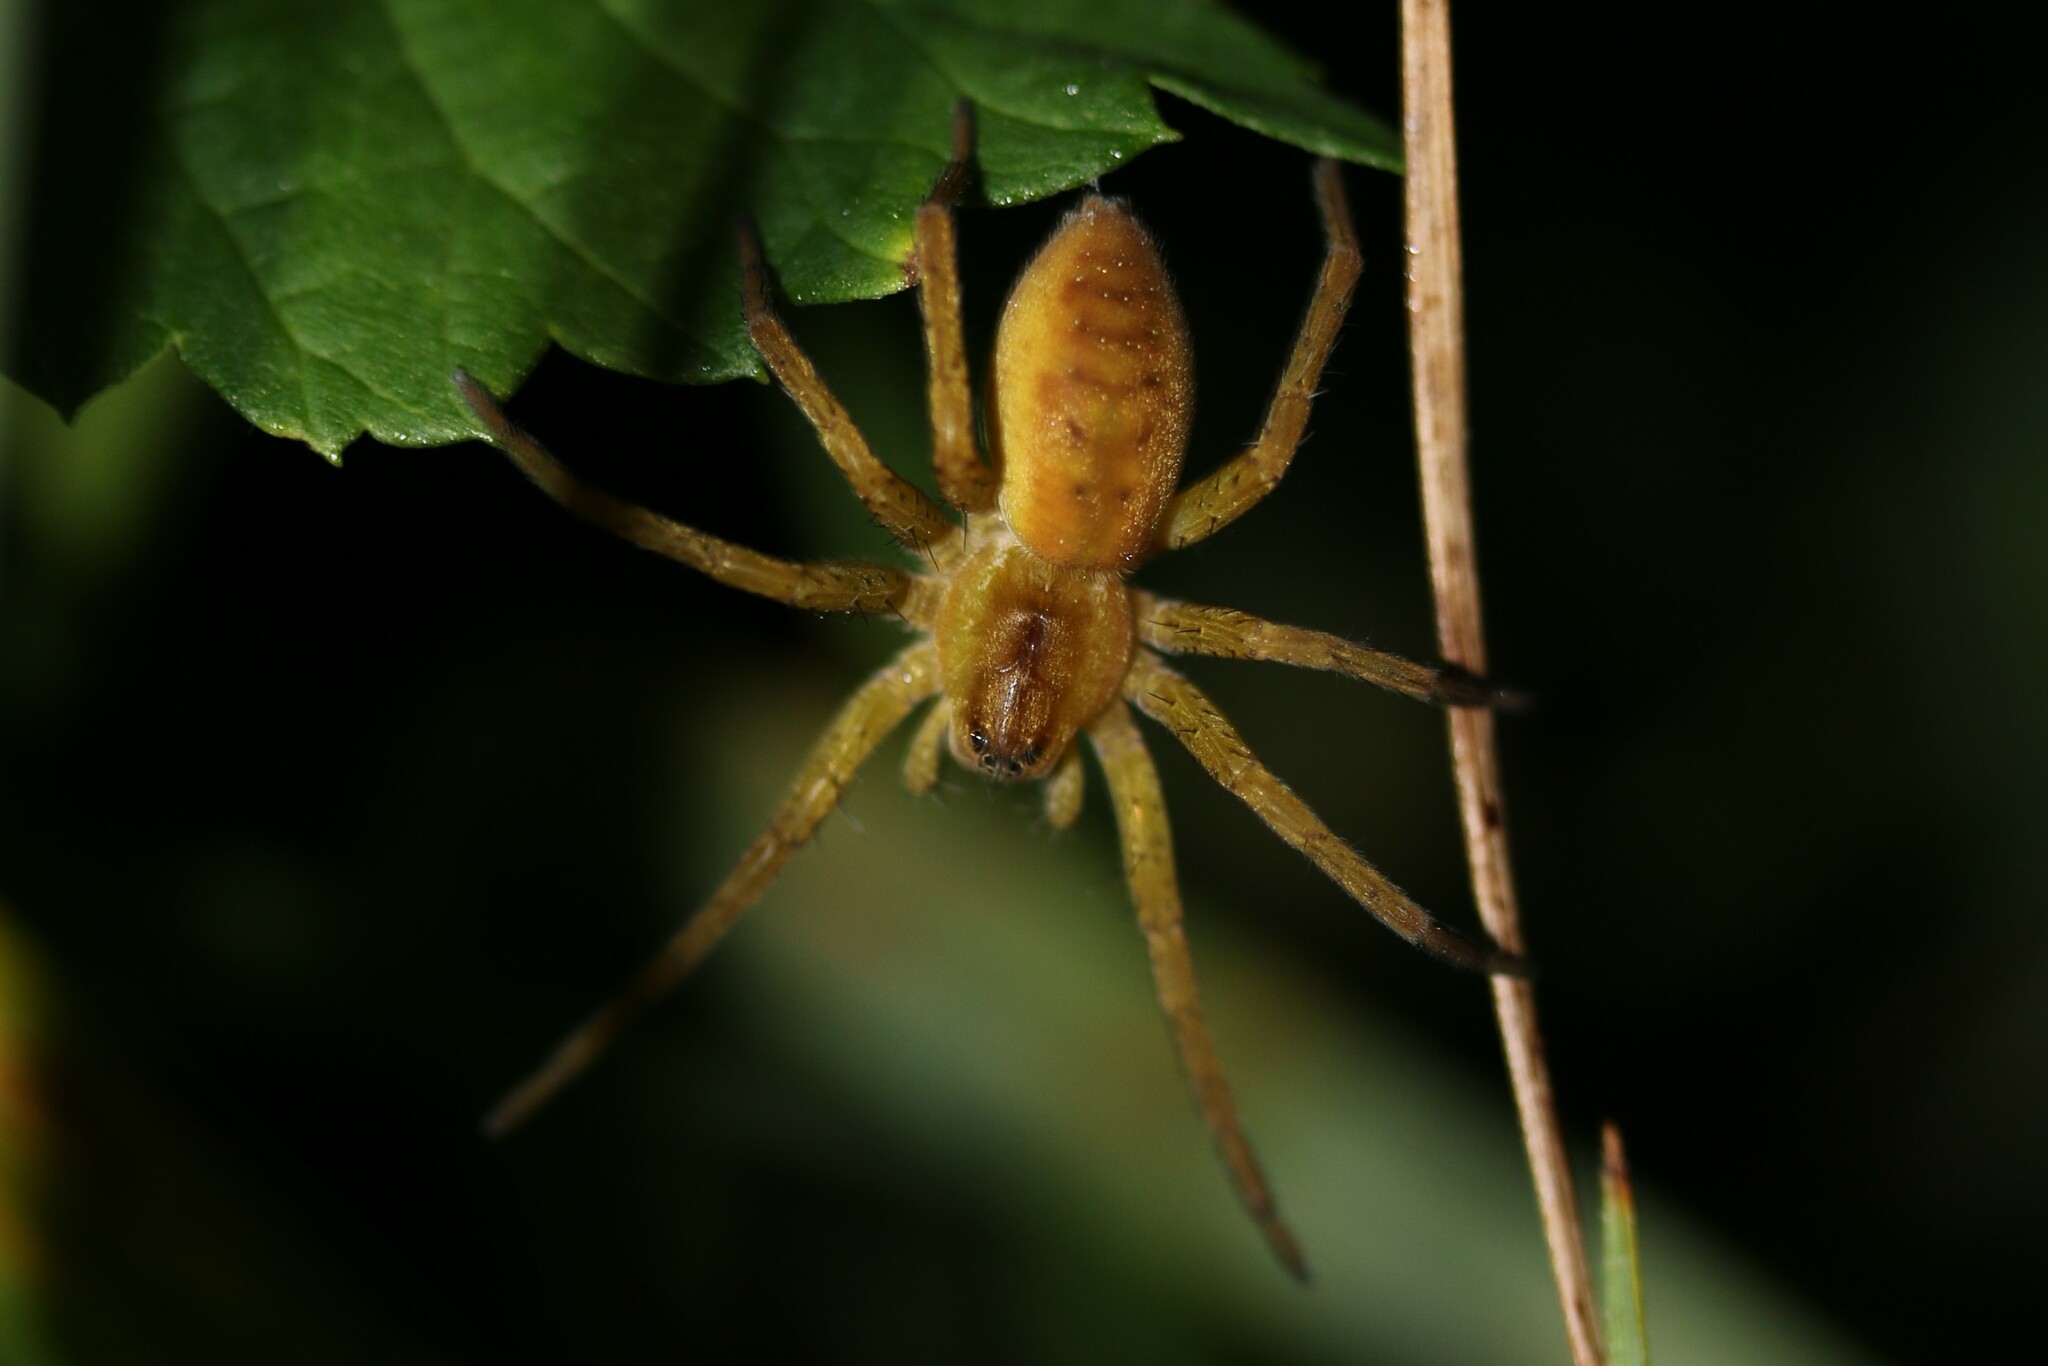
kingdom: Animalia
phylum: Arthropoda
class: Arachnida
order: Araneae
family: Pisauridae
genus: Dolomedes
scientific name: Dolomedes
